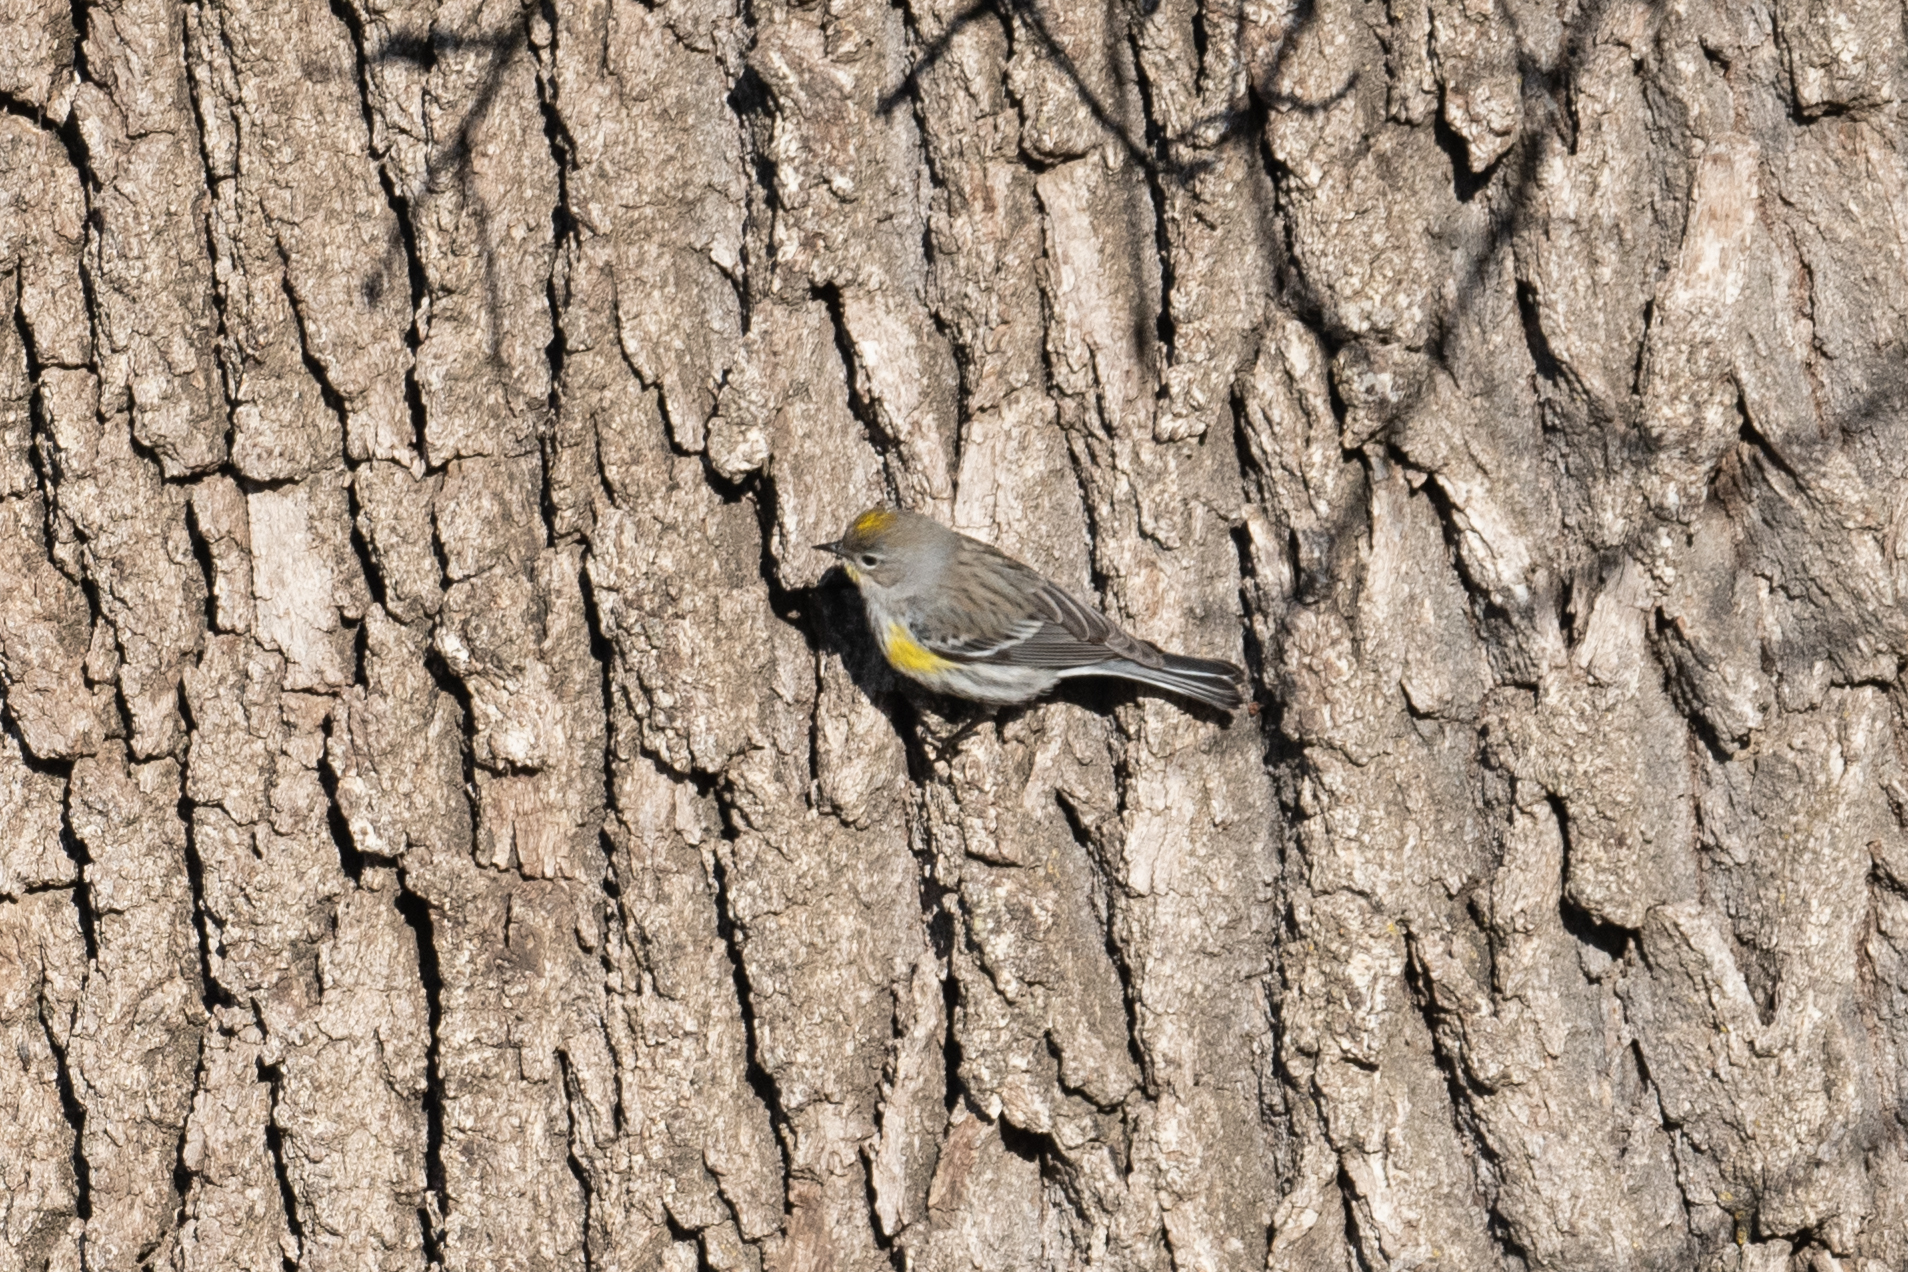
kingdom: Animalia
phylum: Chordata
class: Aves
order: Passeriformes
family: Parulidae
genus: Setophaga
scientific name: Setophaga coronata
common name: Myrtle warbler
